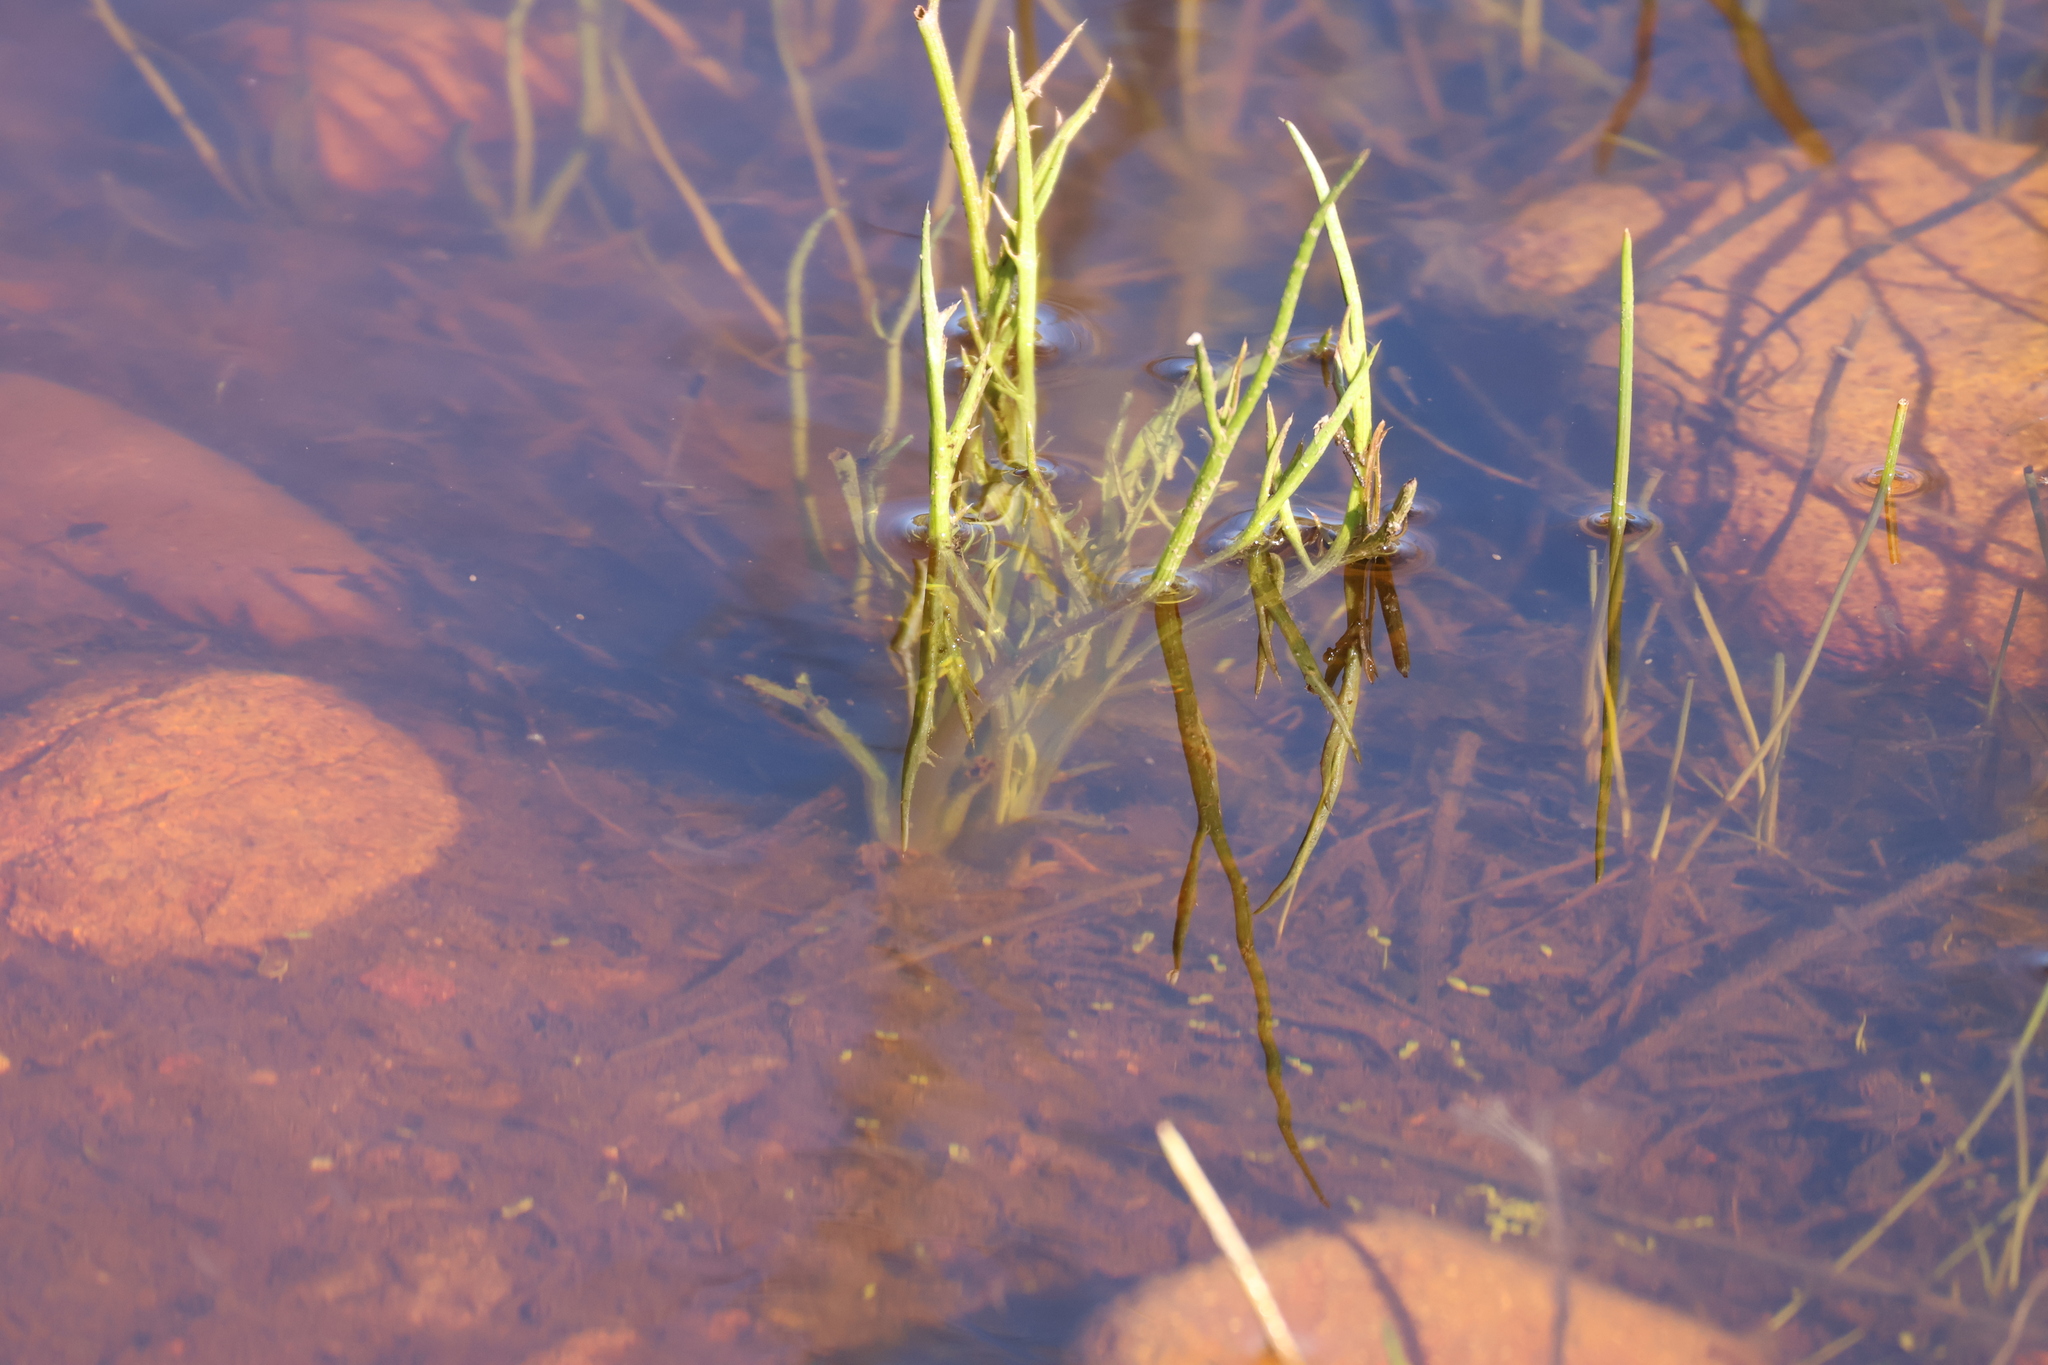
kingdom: Plantae
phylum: Tracheophyta
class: Magnoliopsida
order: Apiales
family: Apiaceae
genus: Eryngium
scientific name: Eryngium aristulatum
